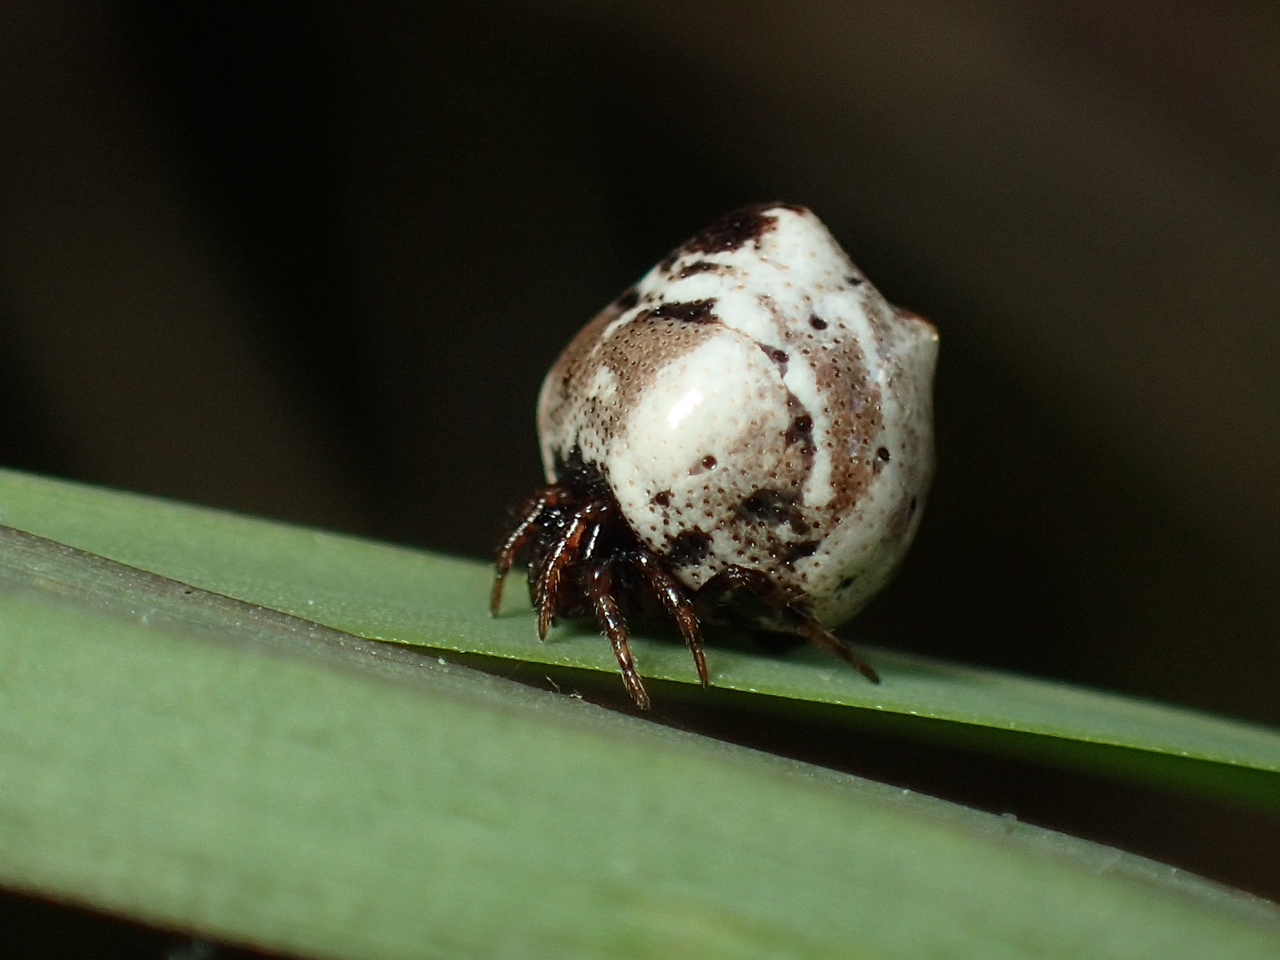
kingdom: Animalia
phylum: Arthropoda
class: Arachnida
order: Araneae
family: Theridiidae
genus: Phoroncidia
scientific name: Phoroncidia americana
